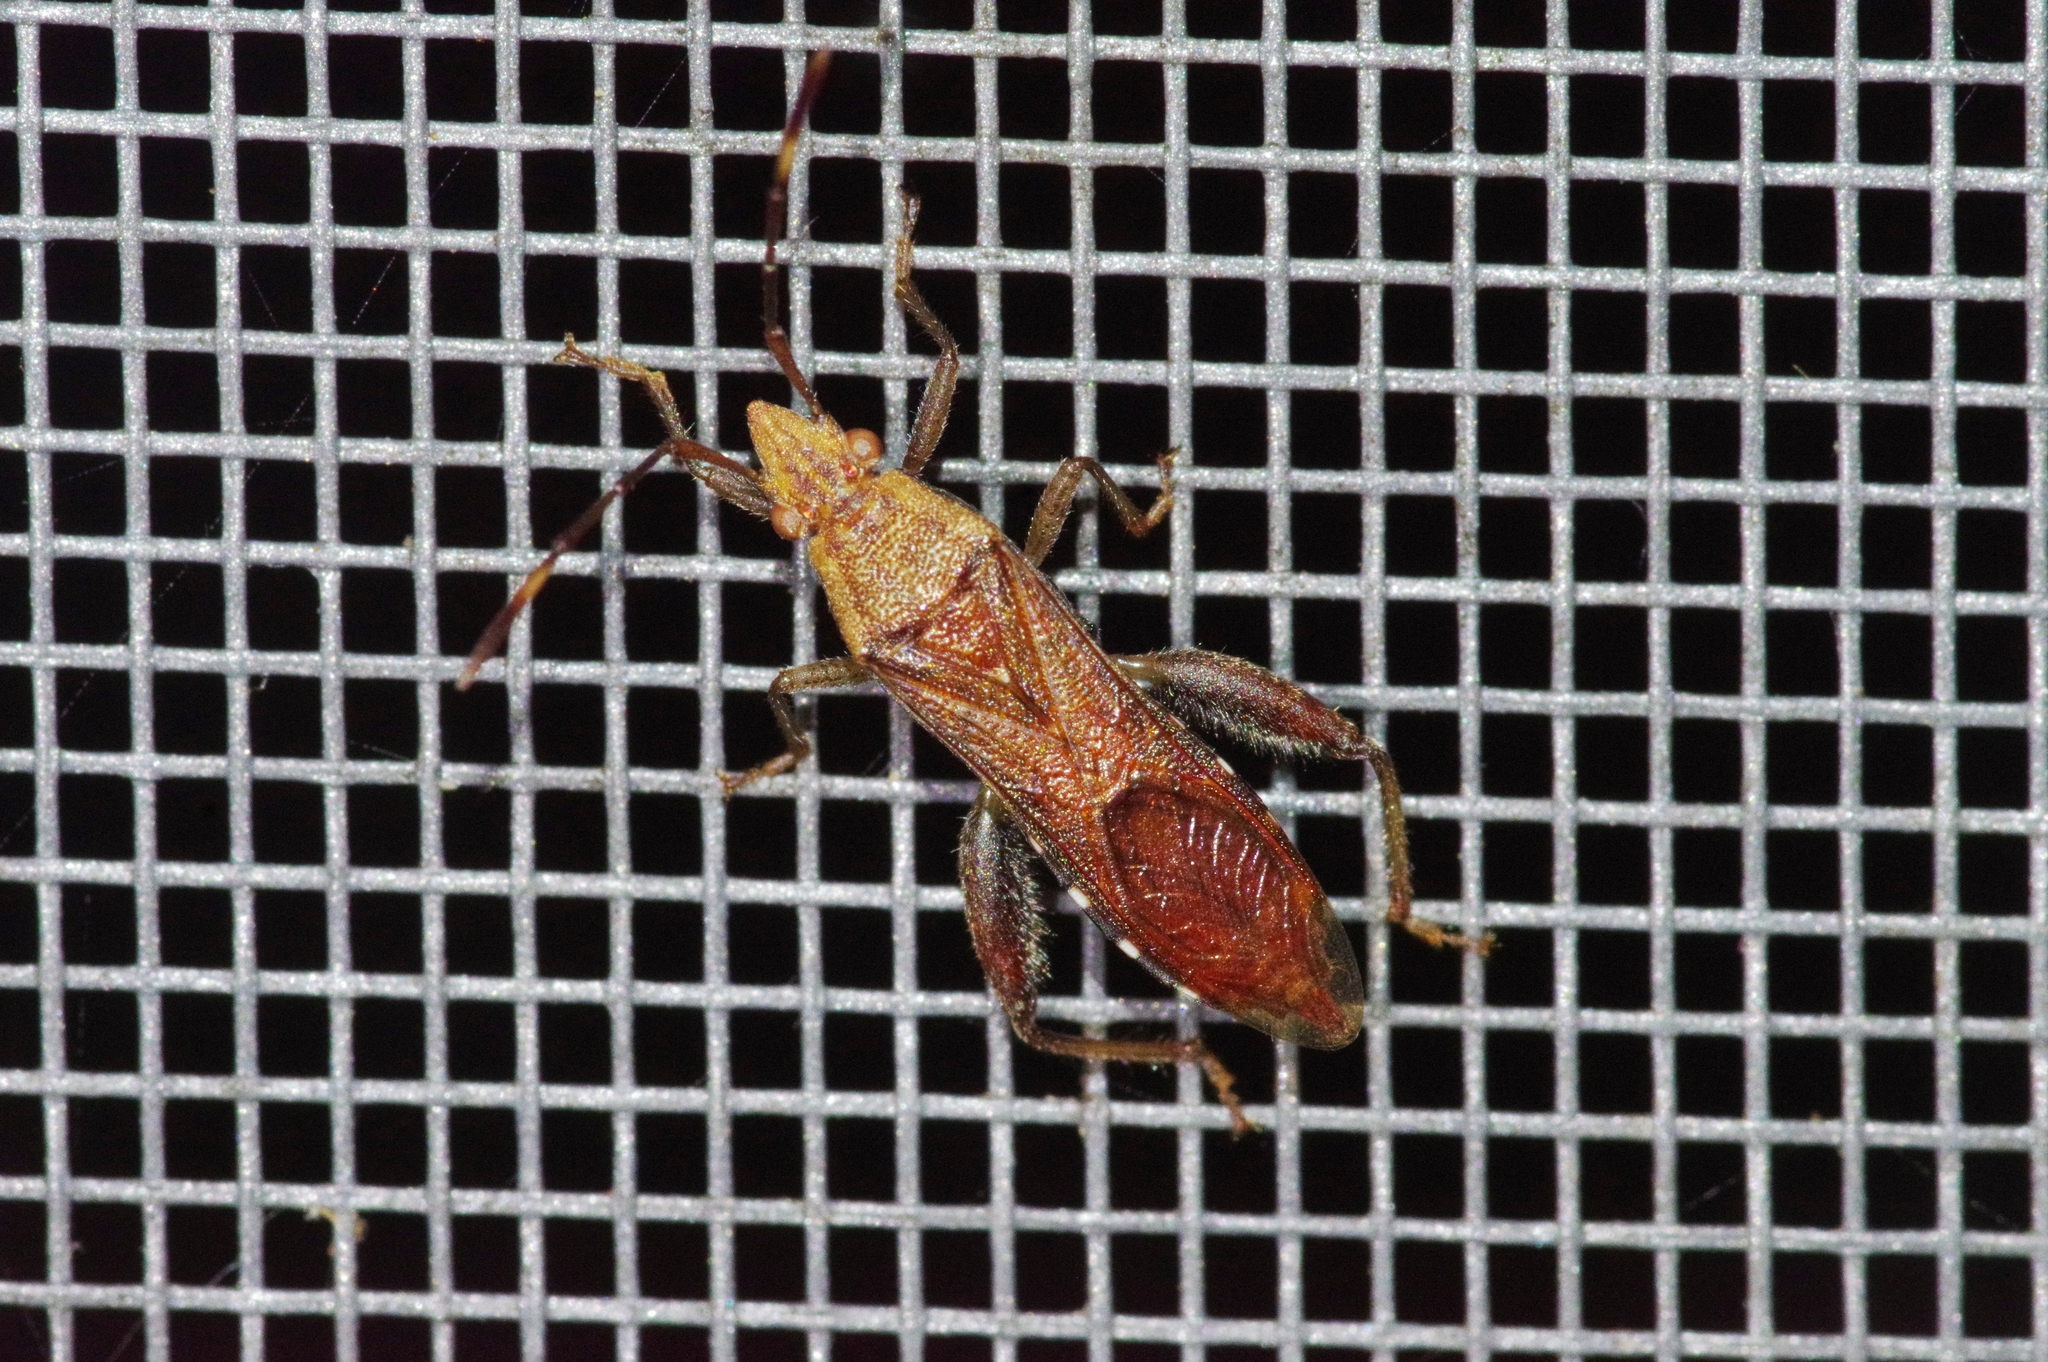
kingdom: Animalia
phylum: Arthropoda
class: Insecta
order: Hemiptera
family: Alydidae
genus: Daclera
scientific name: Daclera levana
